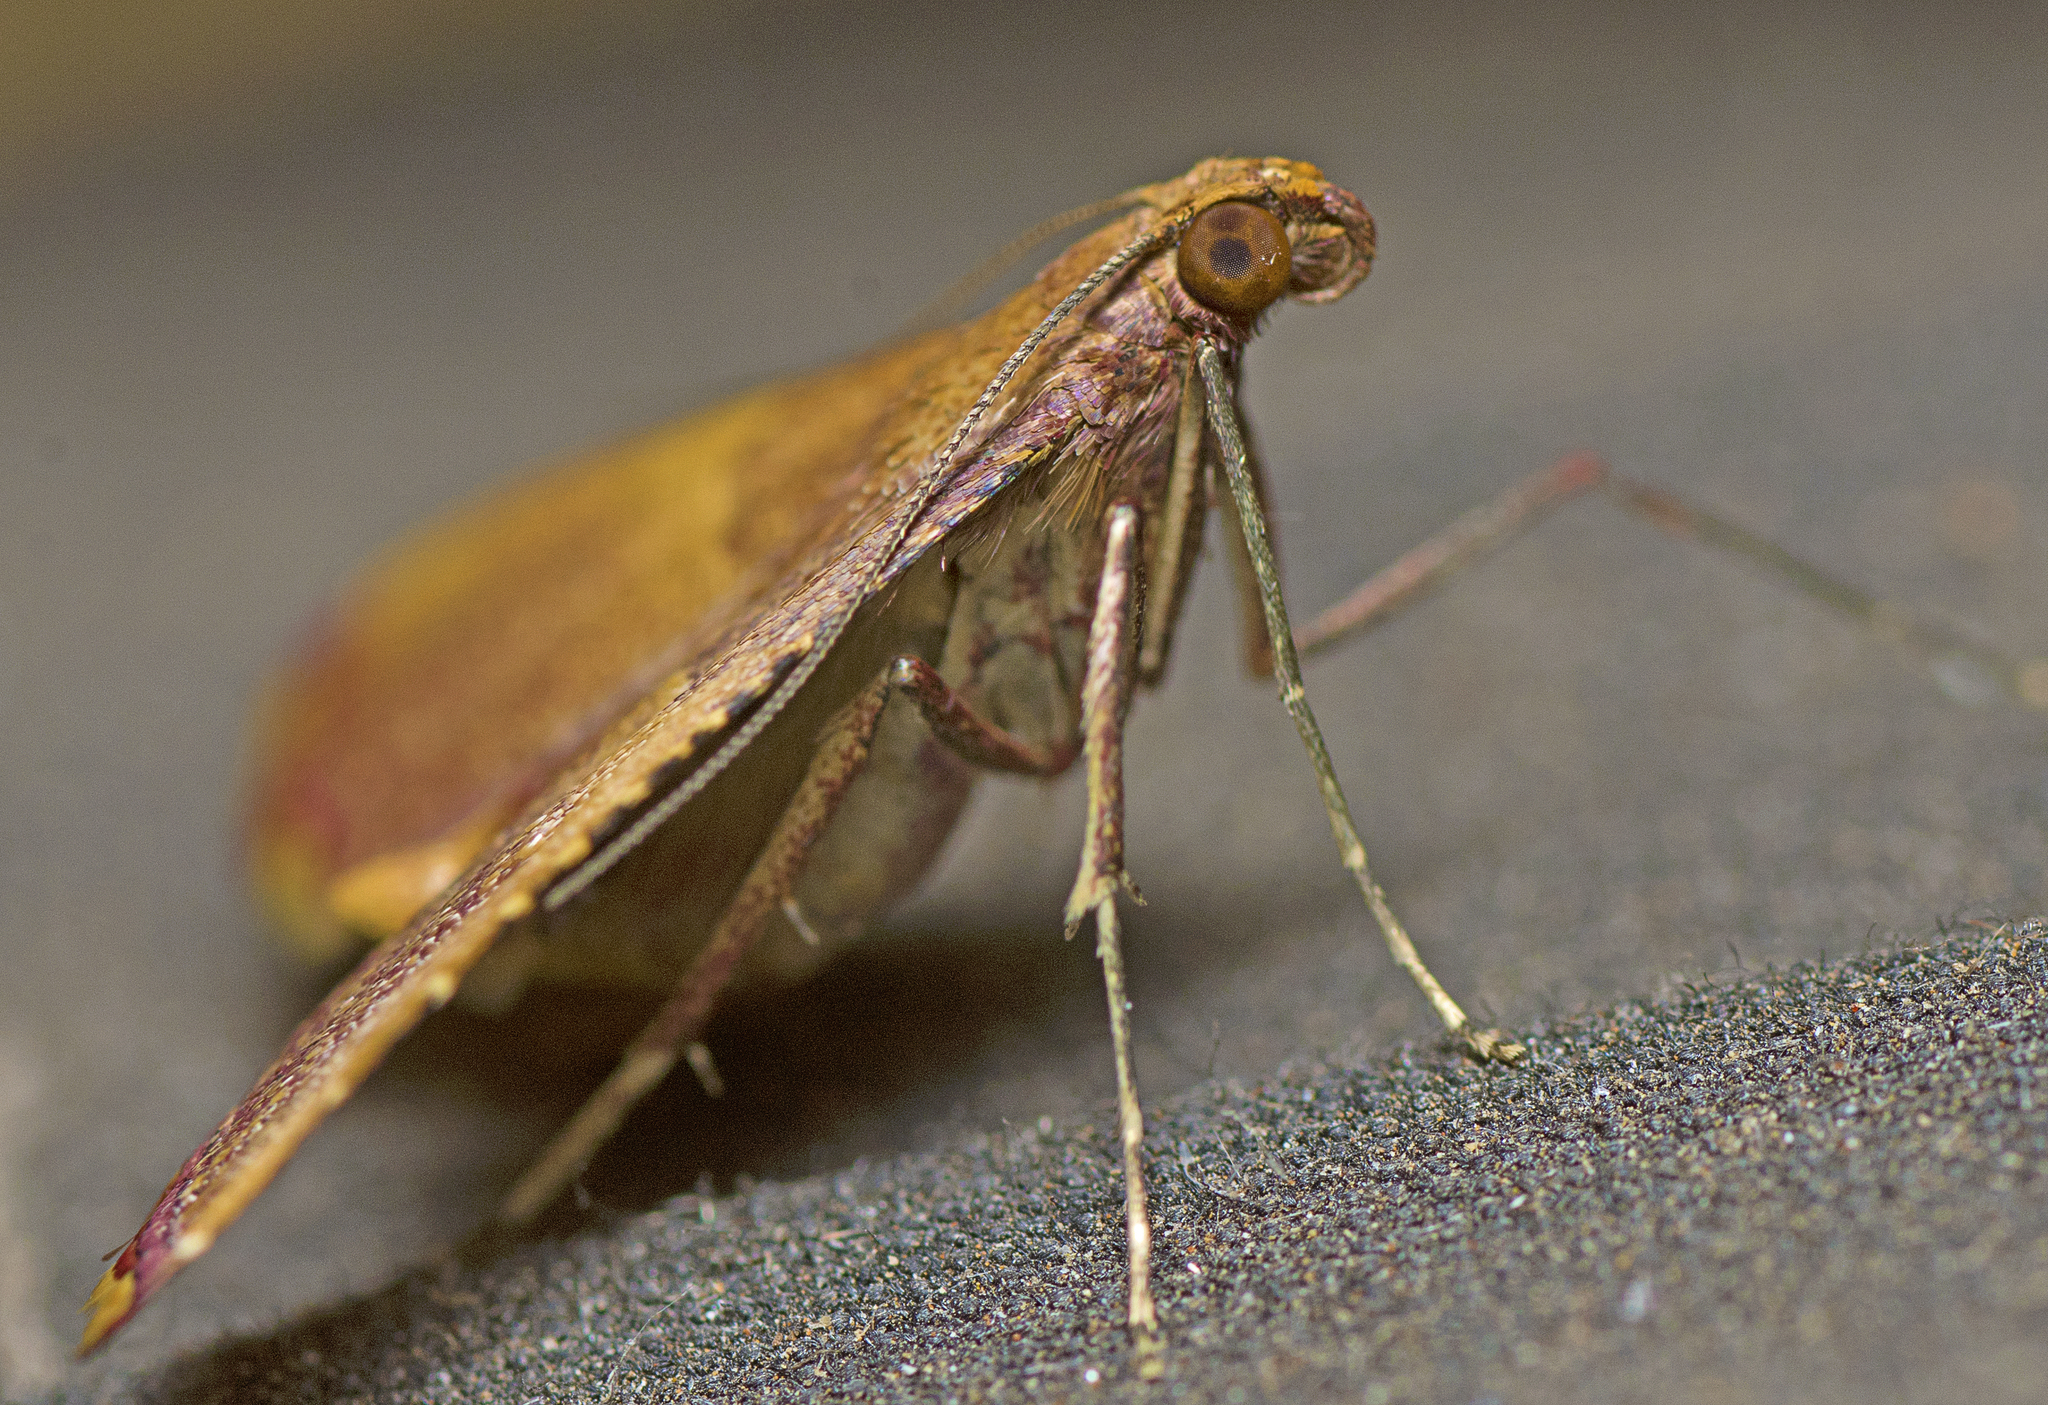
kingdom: Animalia
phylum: Arthropoda
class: Insecta
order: Lepidoptera
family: Pyralidae
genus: Endotricha
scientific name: Endotricha mesenterialis
